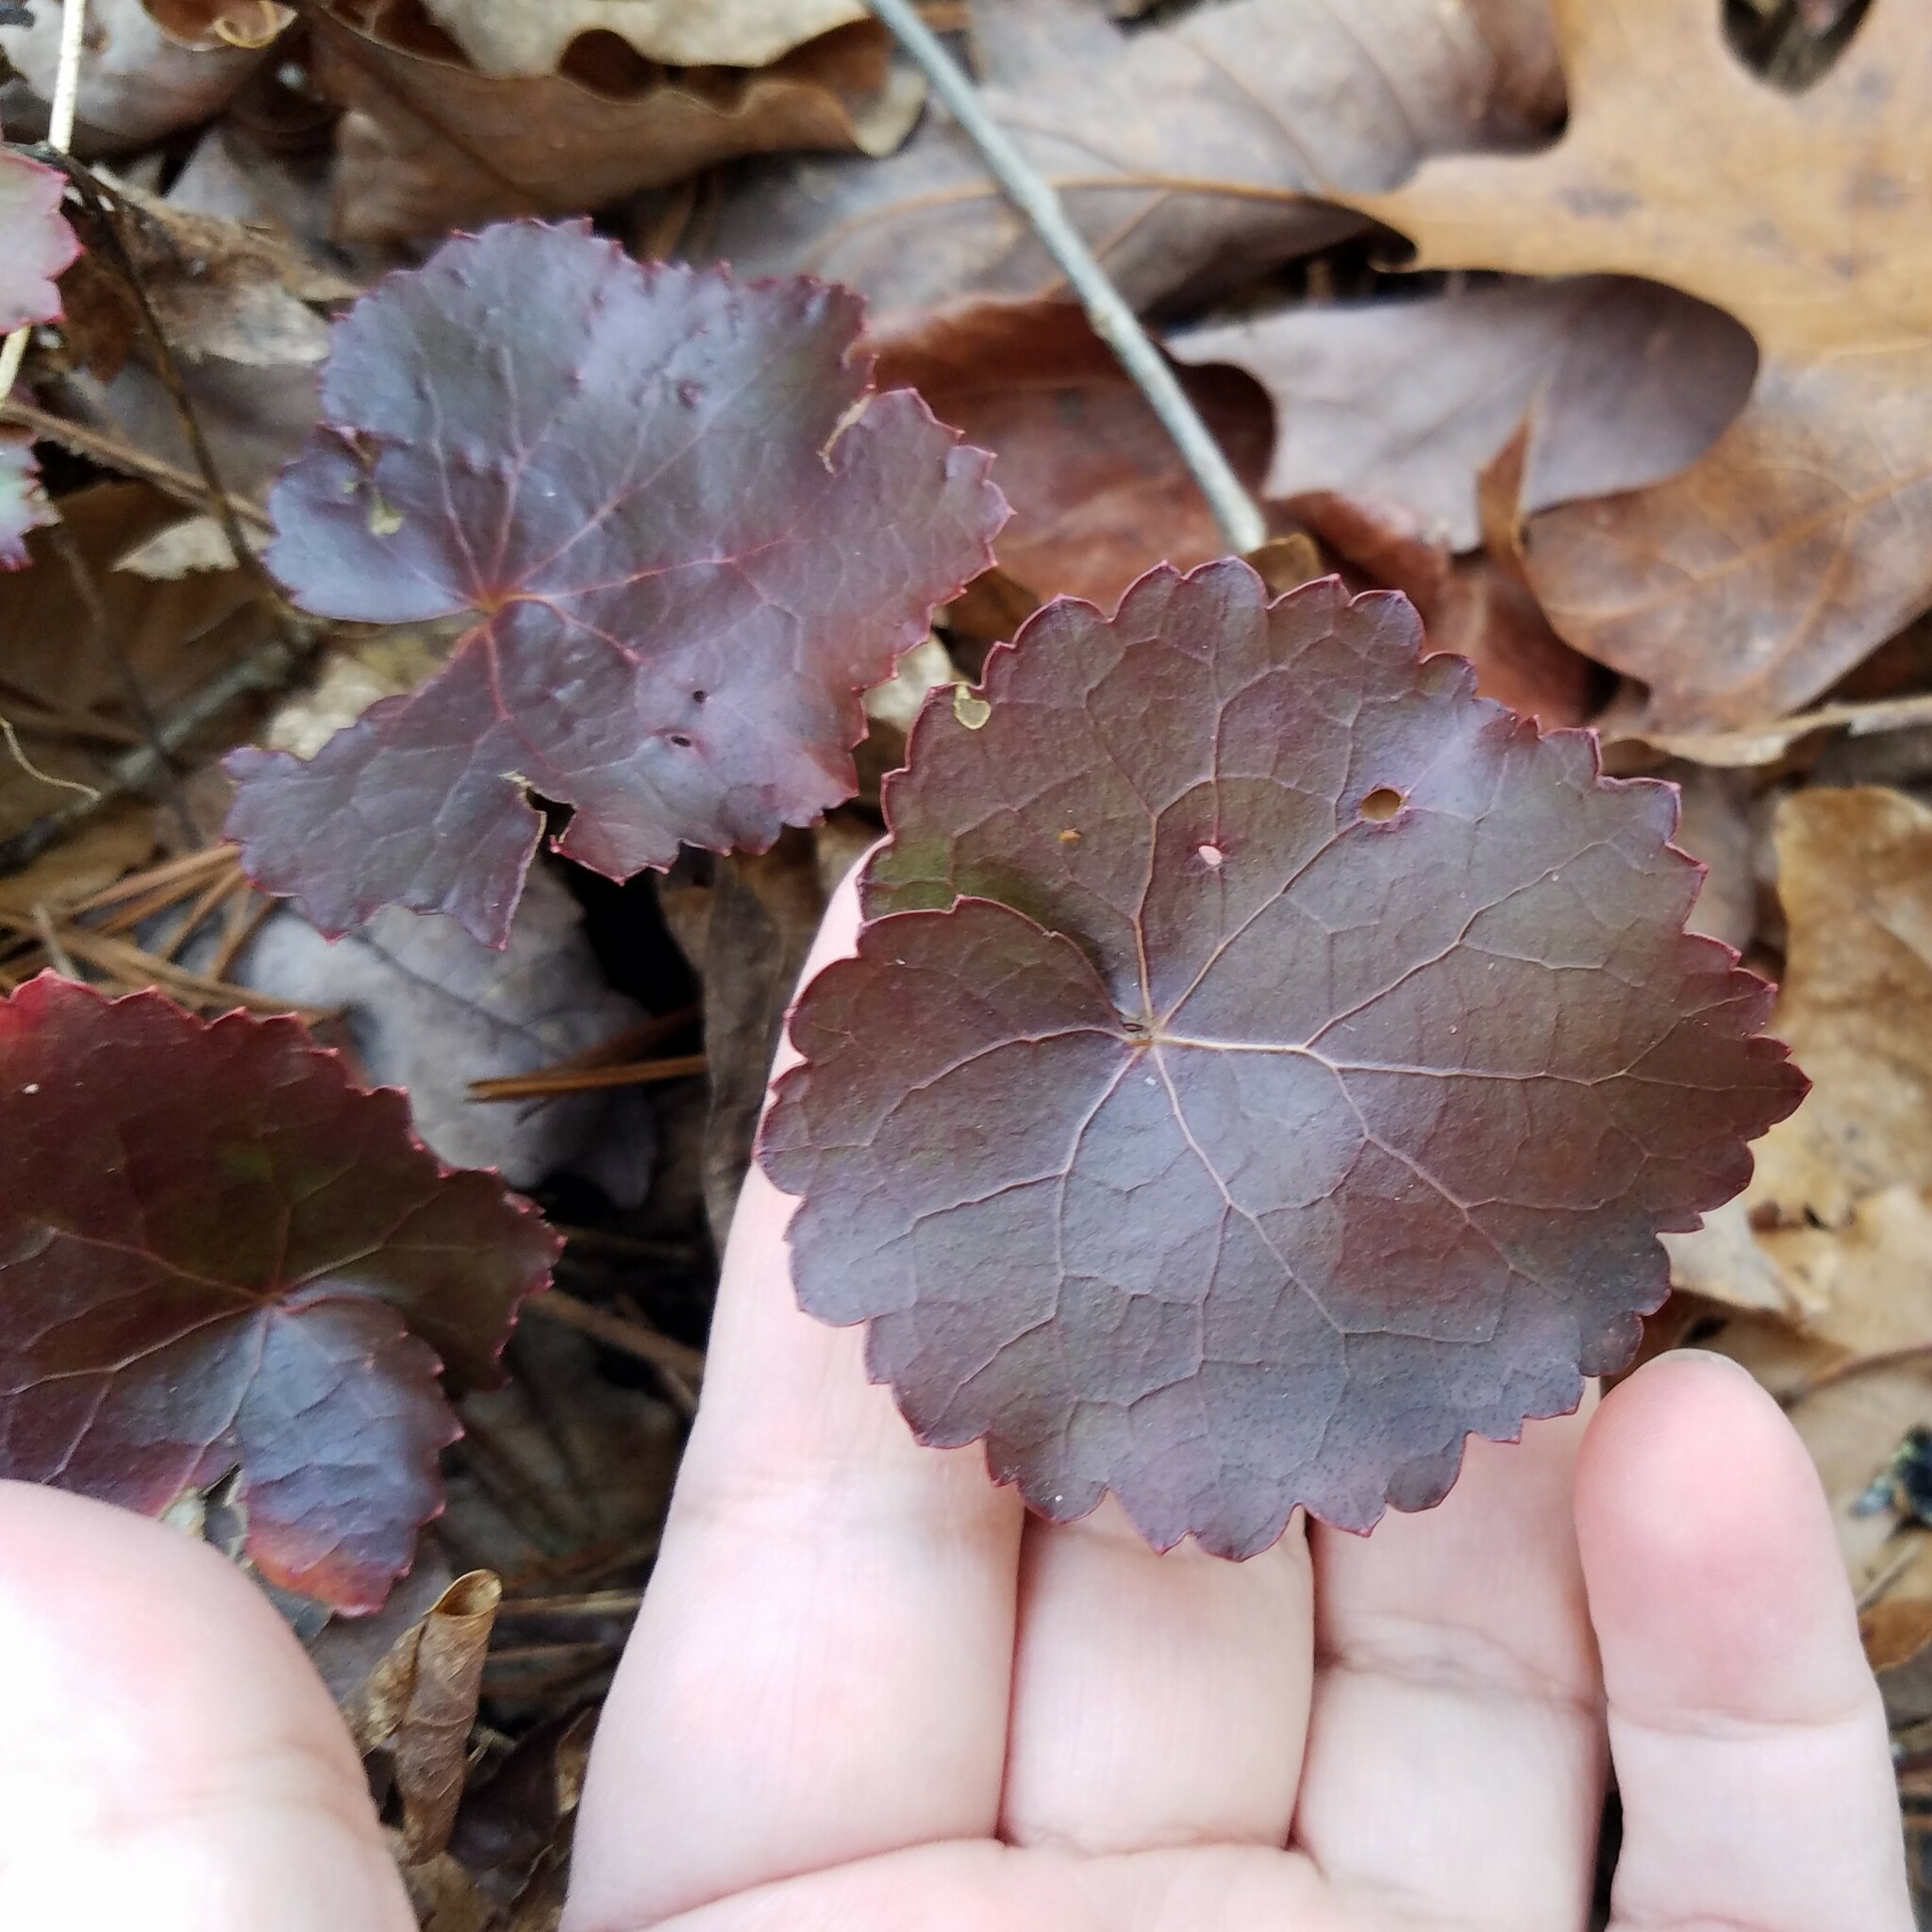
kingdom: Plantae
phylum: Tracheophyta
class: Magnoliopsida
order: Ericales
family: Diapensiaceae
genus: Galax
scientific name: Galax urceolata
